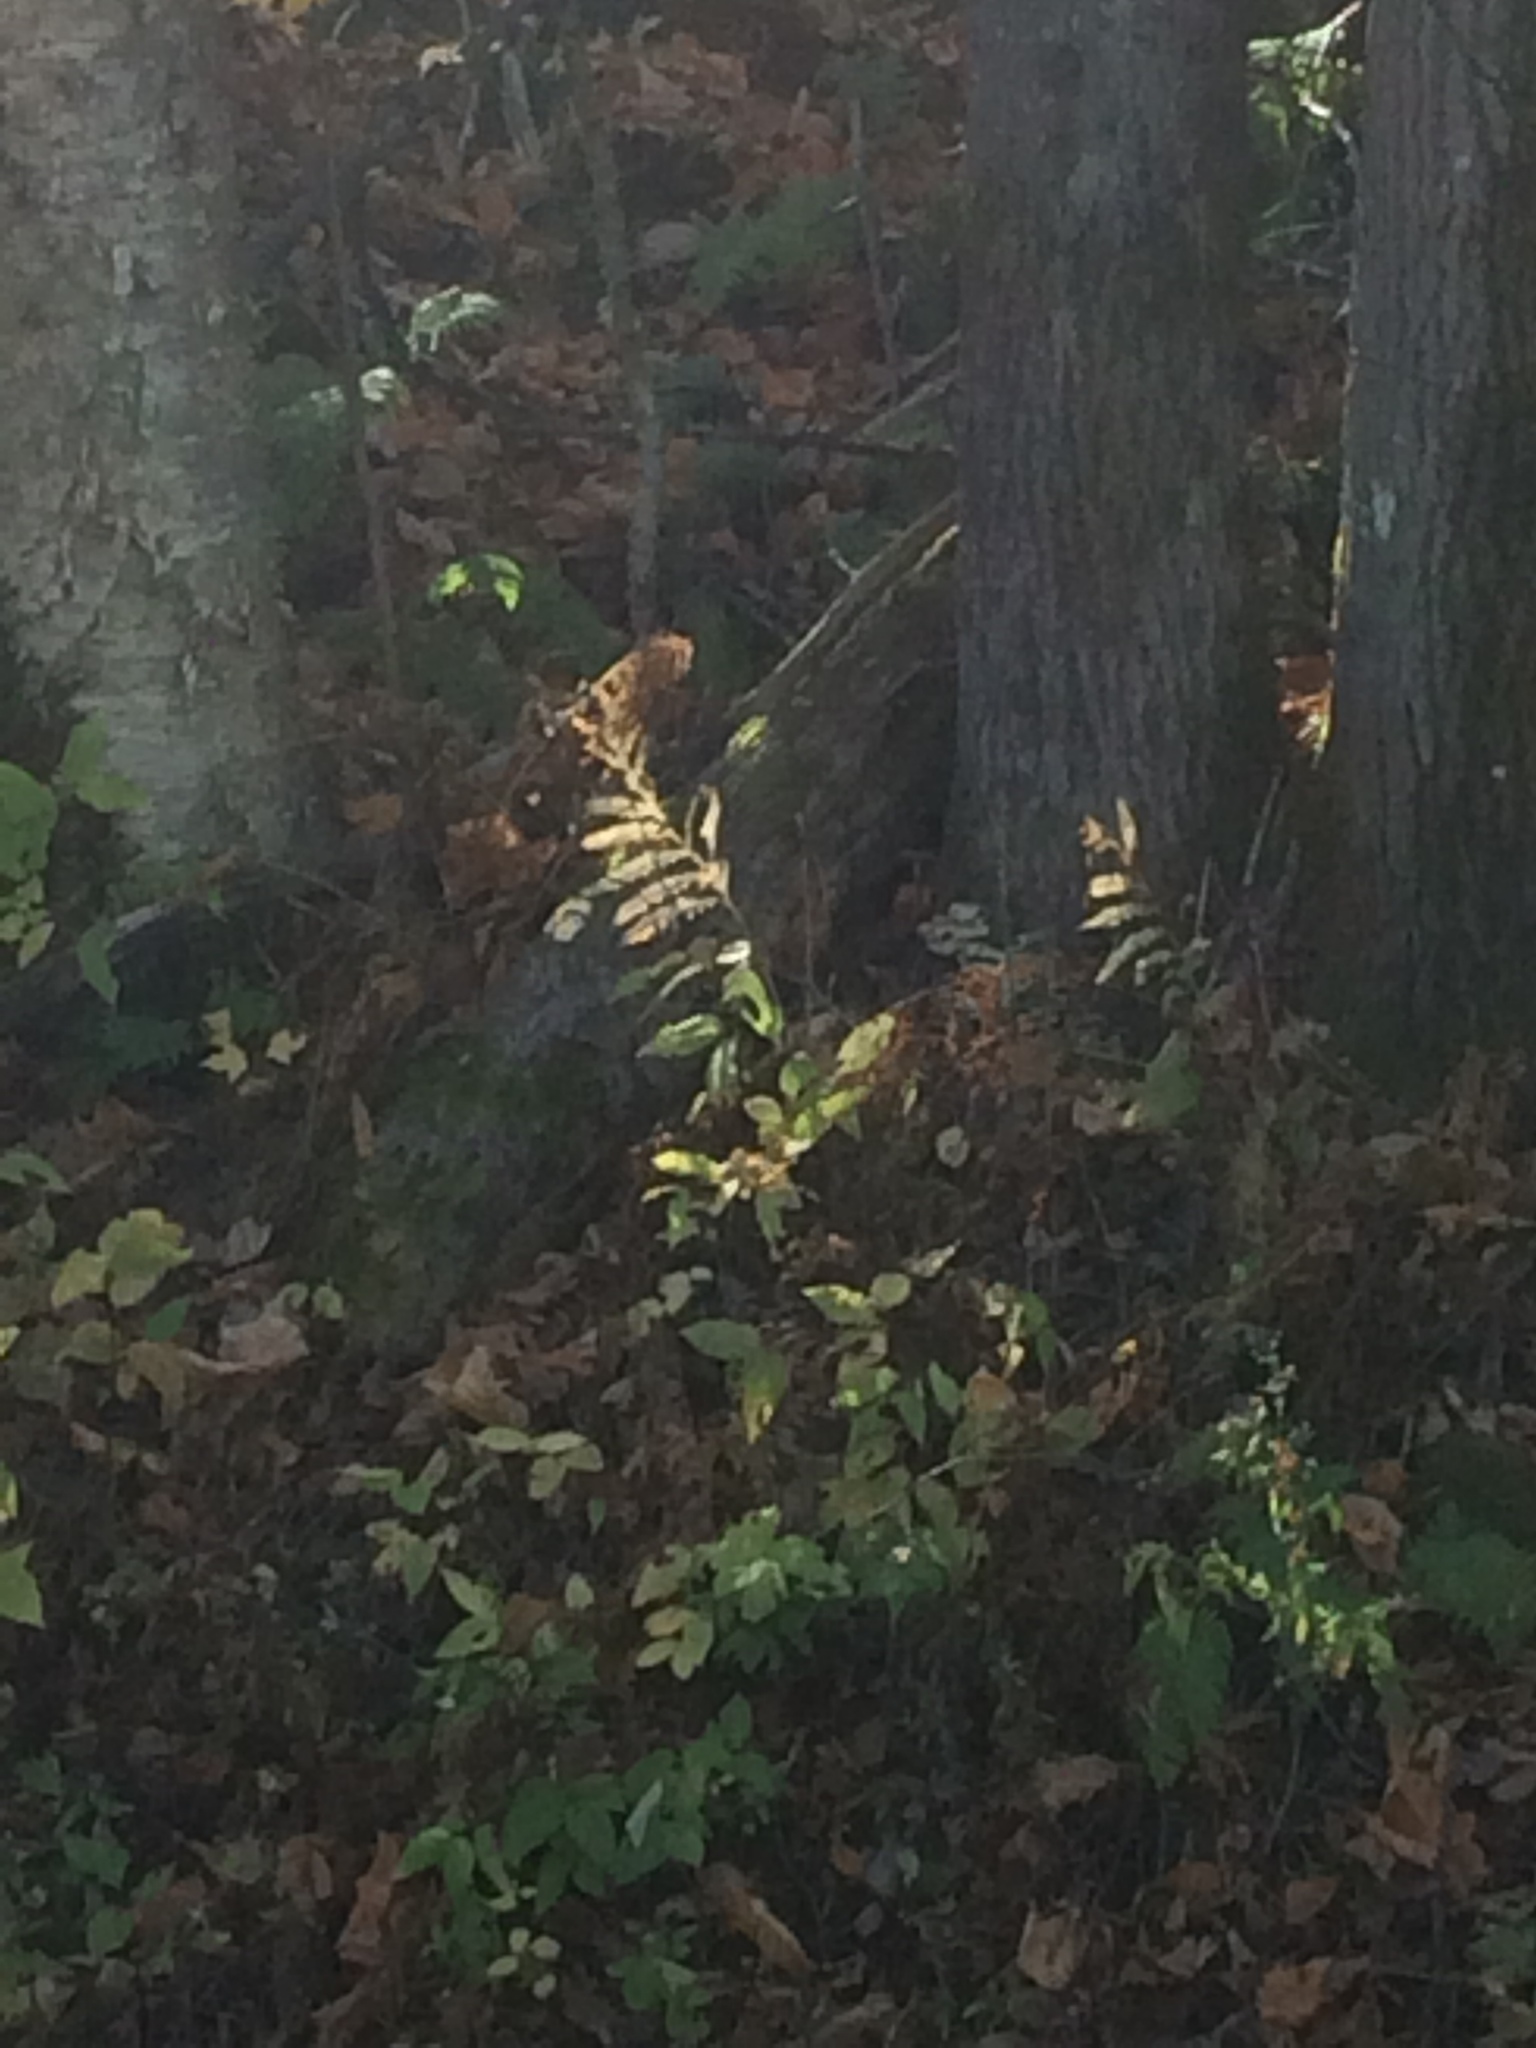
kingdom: Plantae
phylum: Tracheophyta
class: Polypodiopsida
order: Polypodiales
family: Onocleaceae
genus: Onoclea
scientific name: Onoclea sensibilis
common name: Sensitive fern
